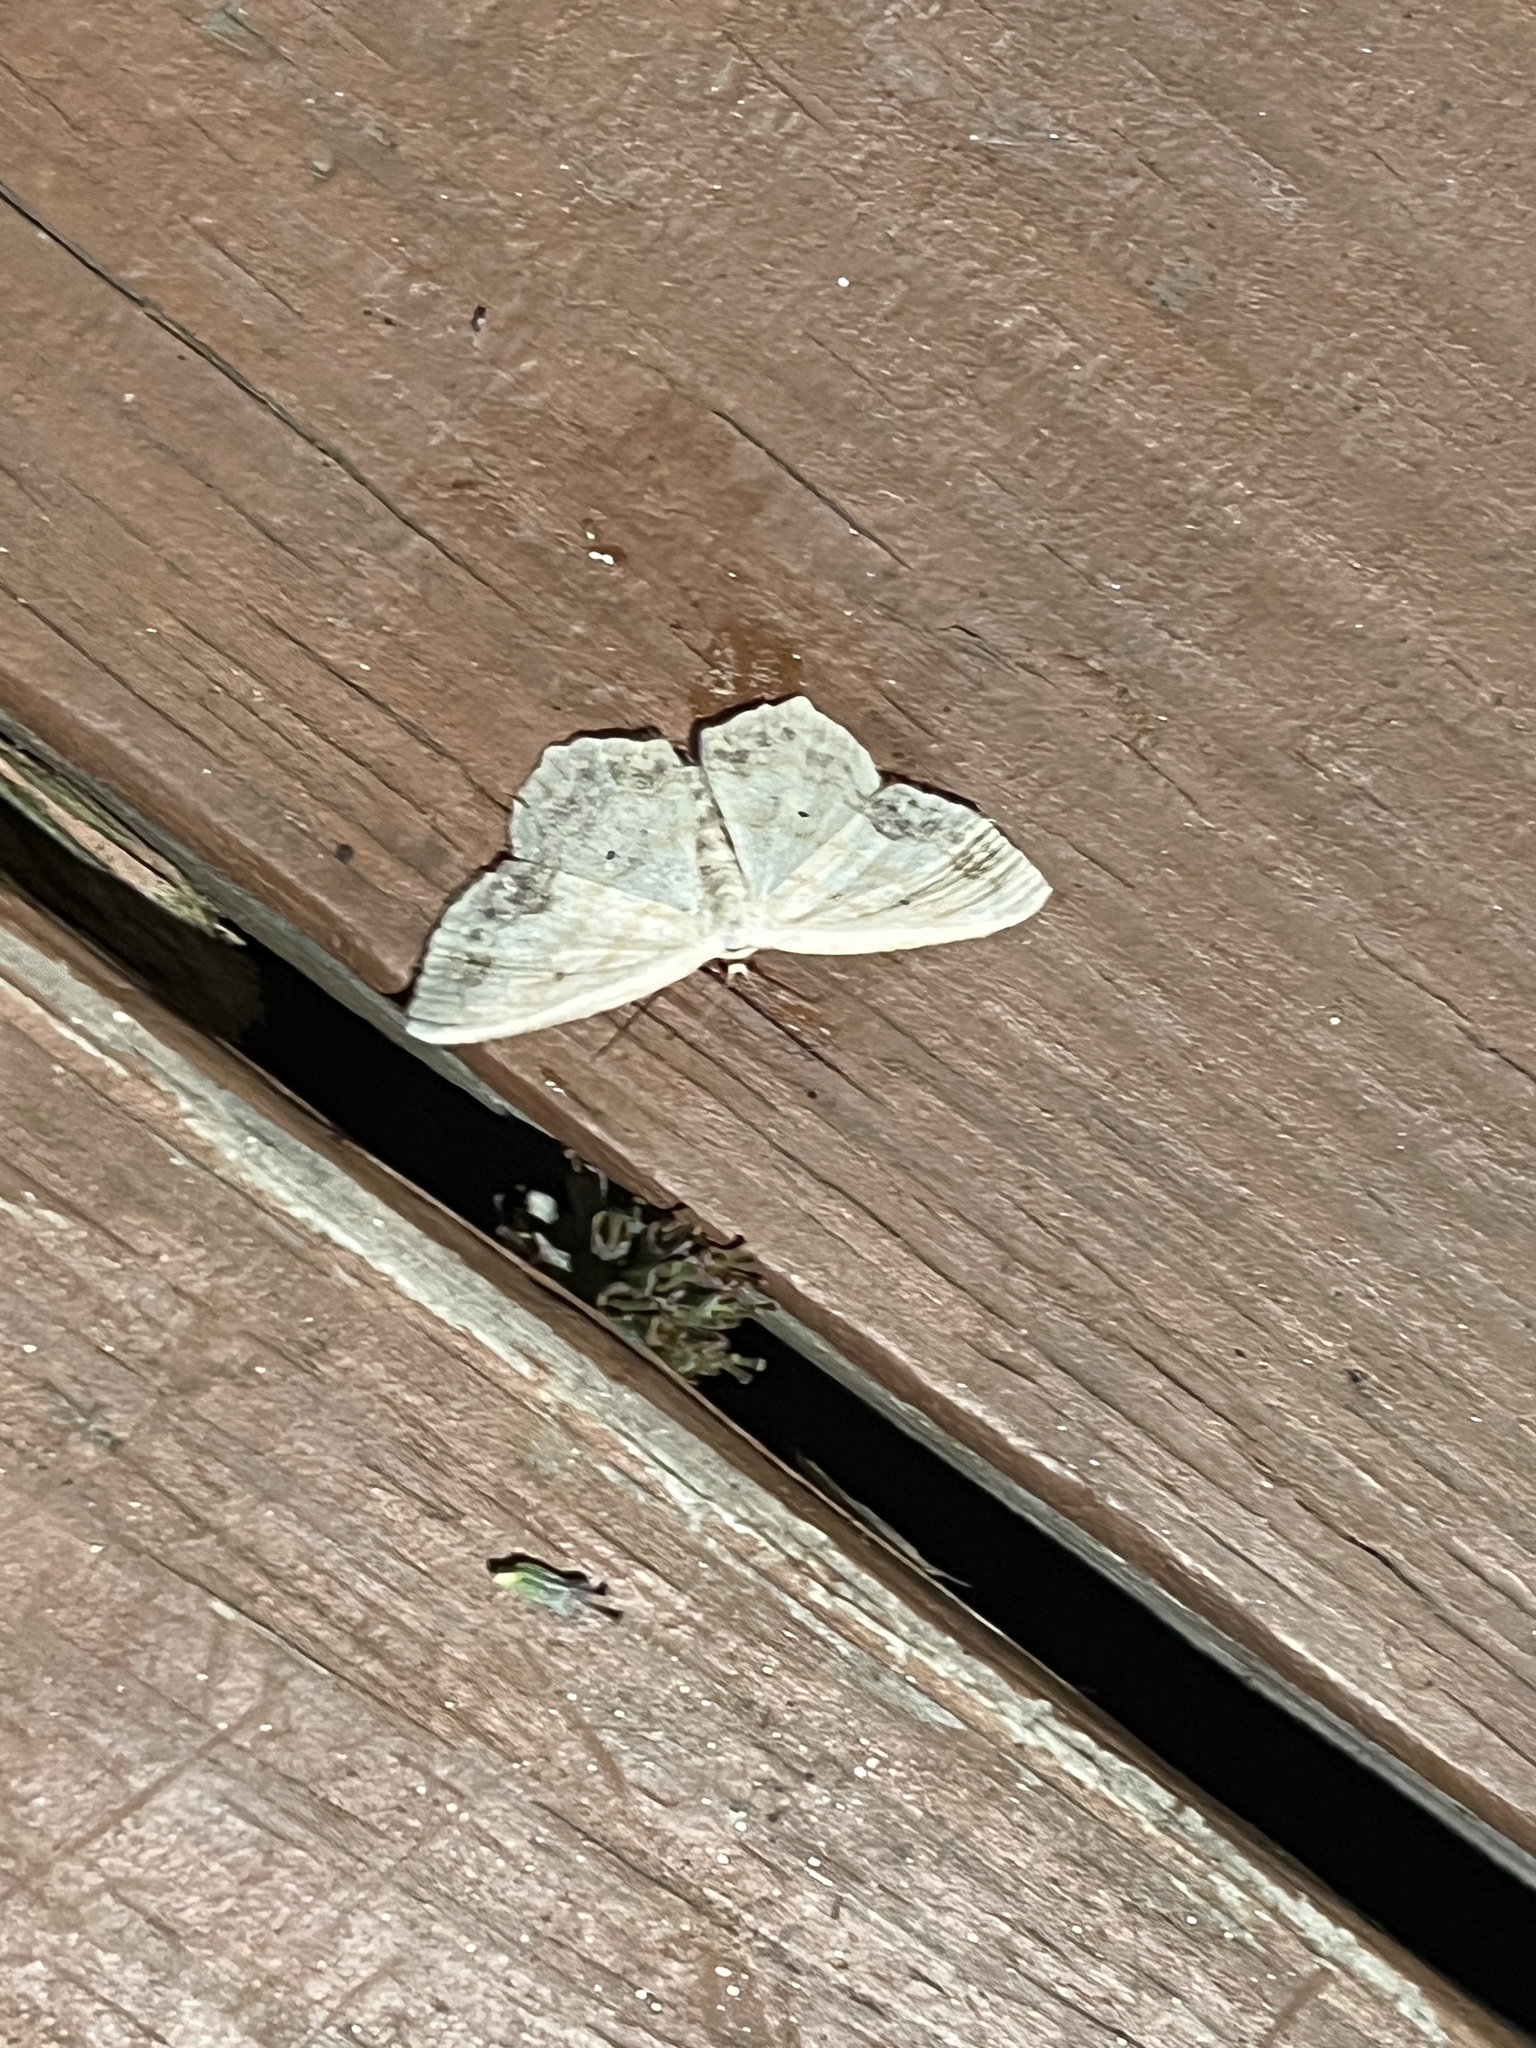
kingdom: Animalia
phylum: Arthropoda
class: Insecta
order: Lepidoptera
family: Geometridae
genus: Scopula
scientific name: Scopula limboundata
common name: Large lace border
